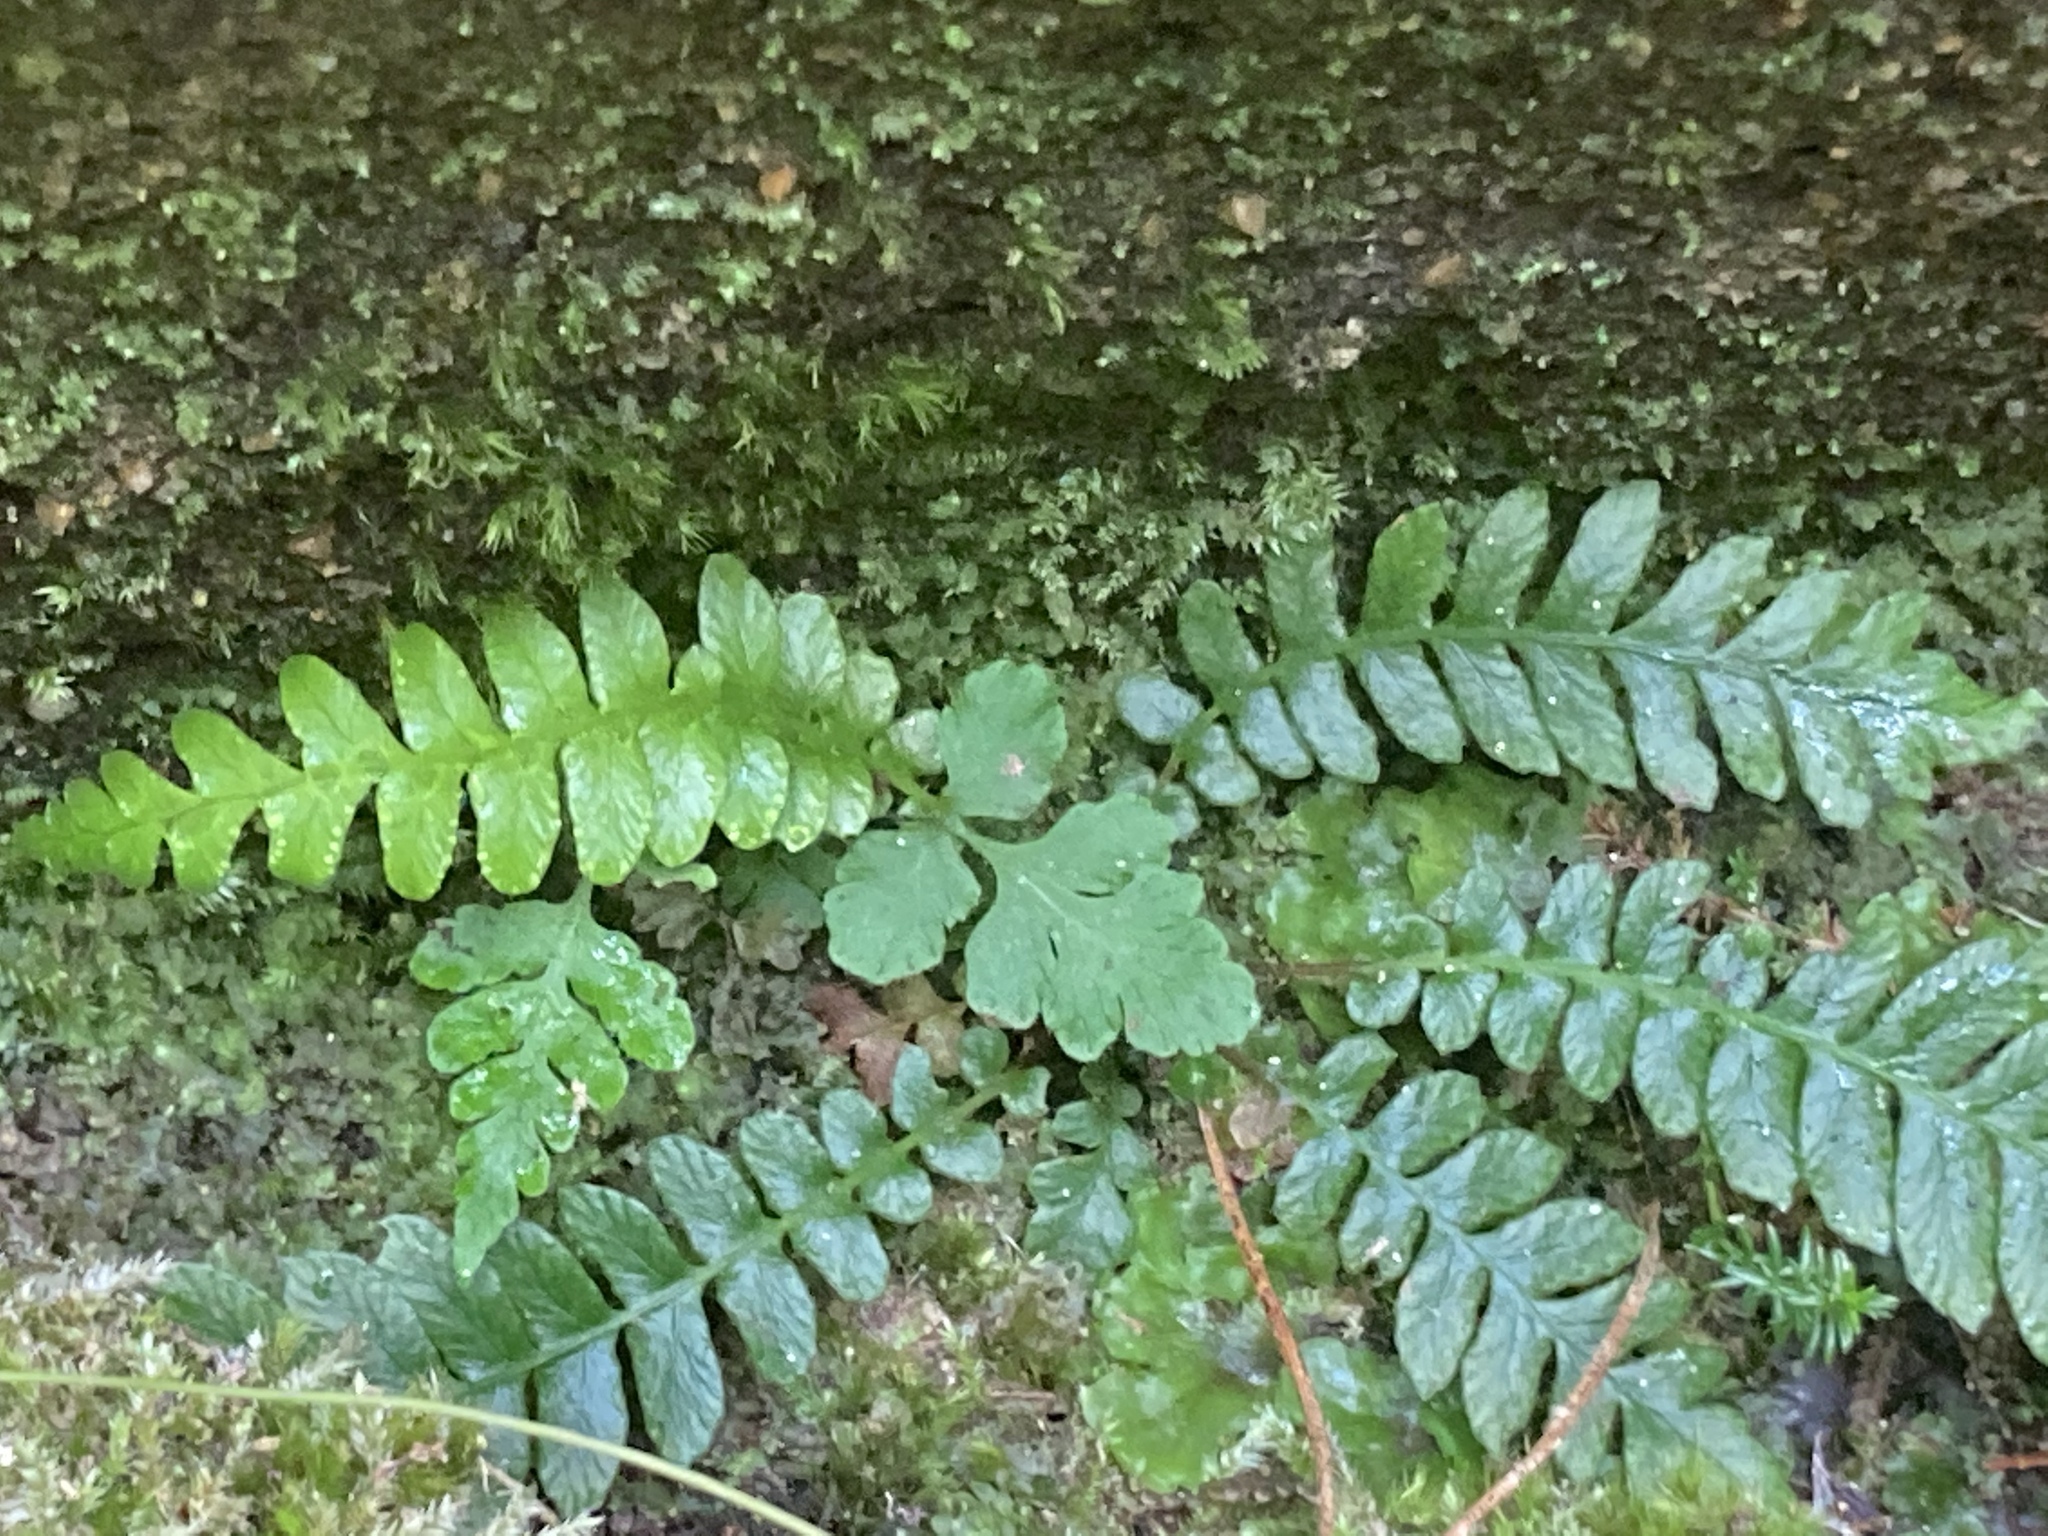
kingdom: Plantae
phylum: Tracheophyta
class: Polypodiopsida
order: Polypodiales
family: Blechnaceae
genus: Struthiopteris
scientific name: Struthiopteris spicant
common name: Deer fern
